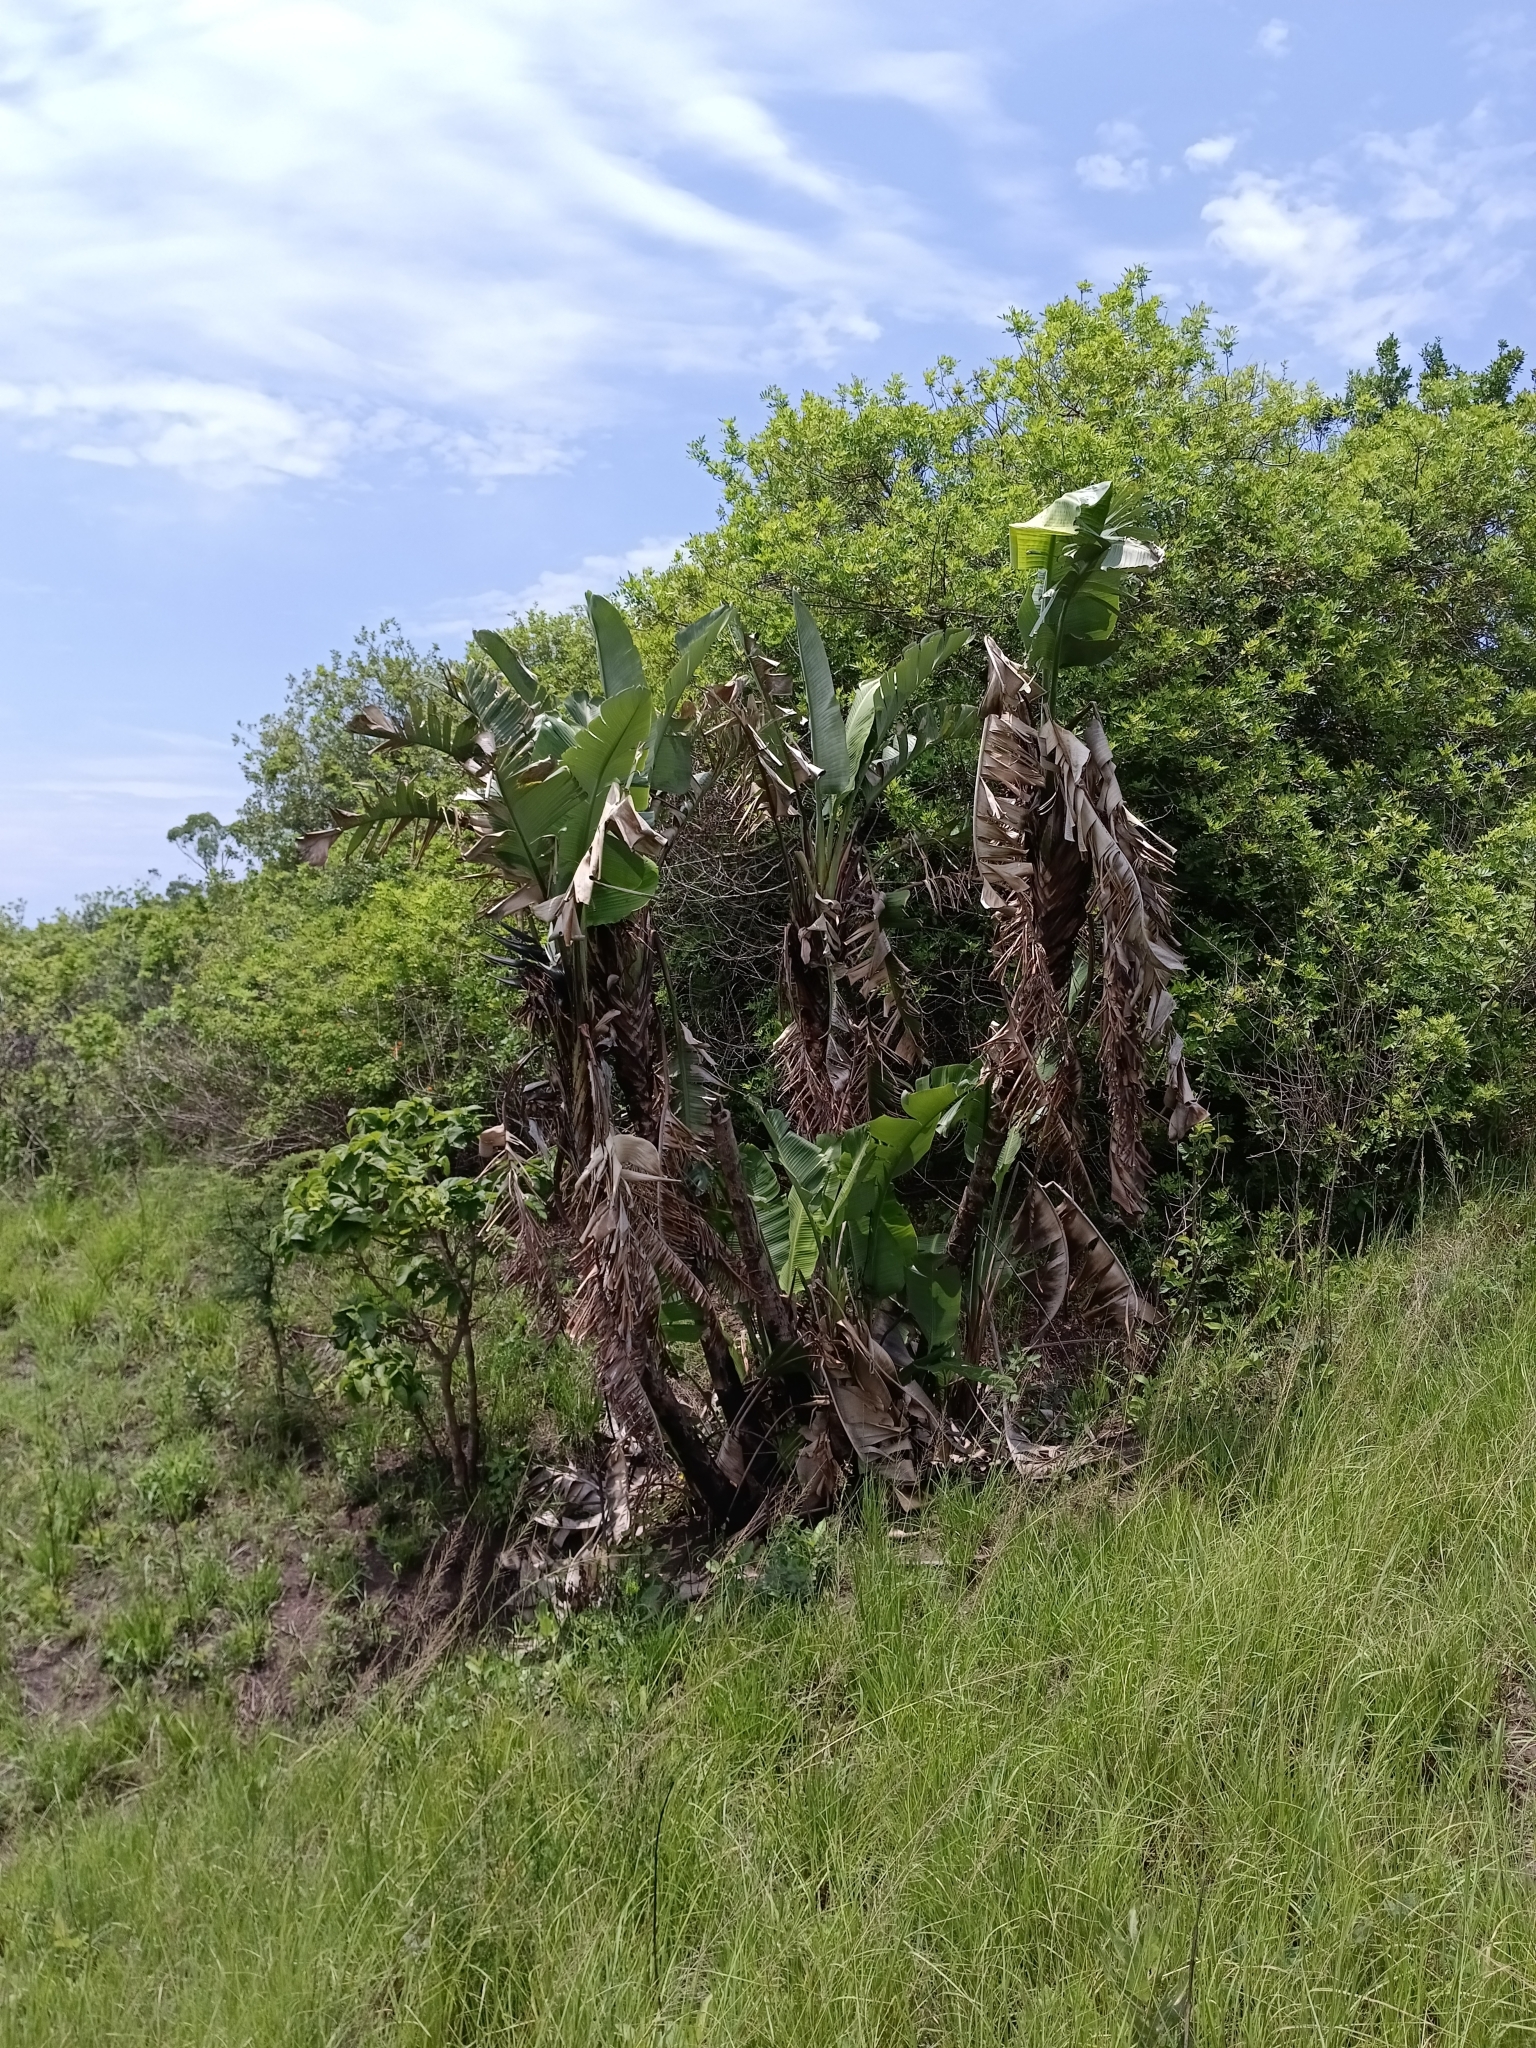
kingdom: Plantae
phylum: Tracheophyta
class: Liliopsida
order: Zingiberales
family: Strelitziaceae
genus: Strelitzia
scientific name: Strelitzia nicolai
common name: Bird-of-paradise tree
